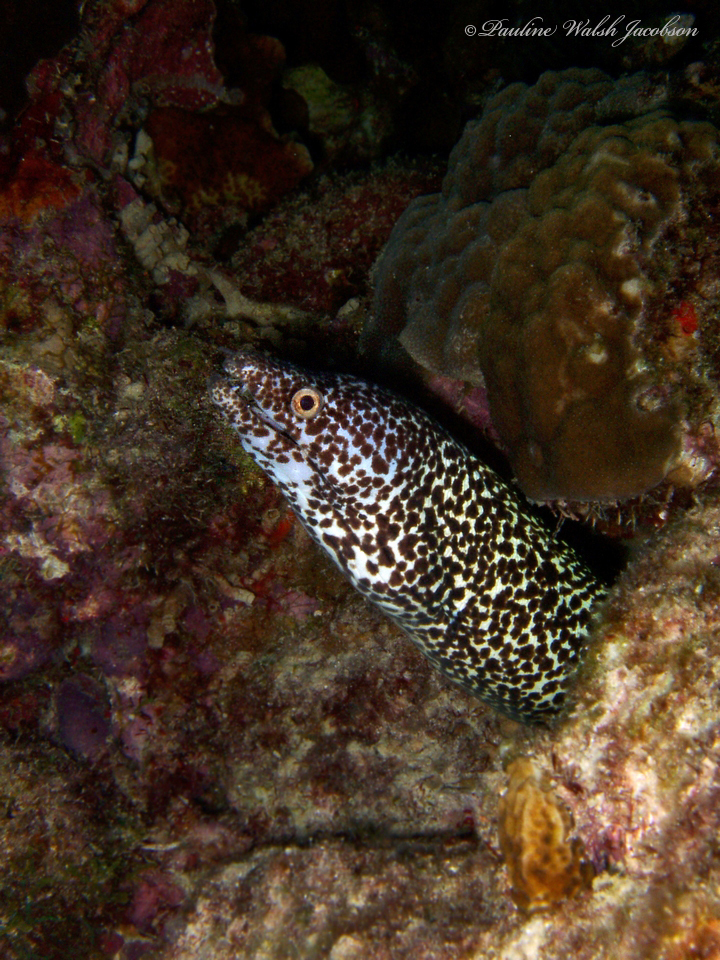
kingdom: Animalia
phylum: Chordata
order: Anguilliformes
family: Muraenidae
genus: Gymnothorax
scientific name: Gymnothorax moringa
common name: Spotted moray
